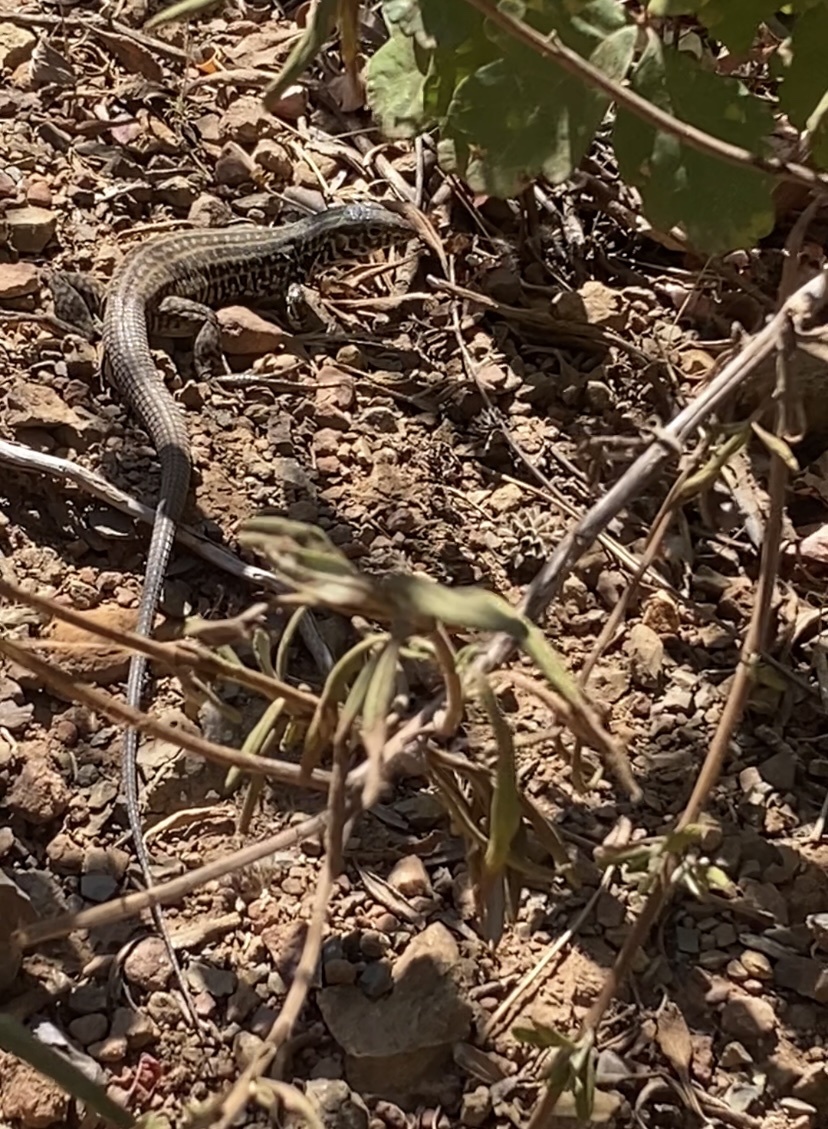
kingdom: Animalia
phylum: Chordata
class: Squamata
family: Teiidae
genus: Aspidoscelis
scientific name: Aspidoscelis tigris
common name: Tiger whiptail
